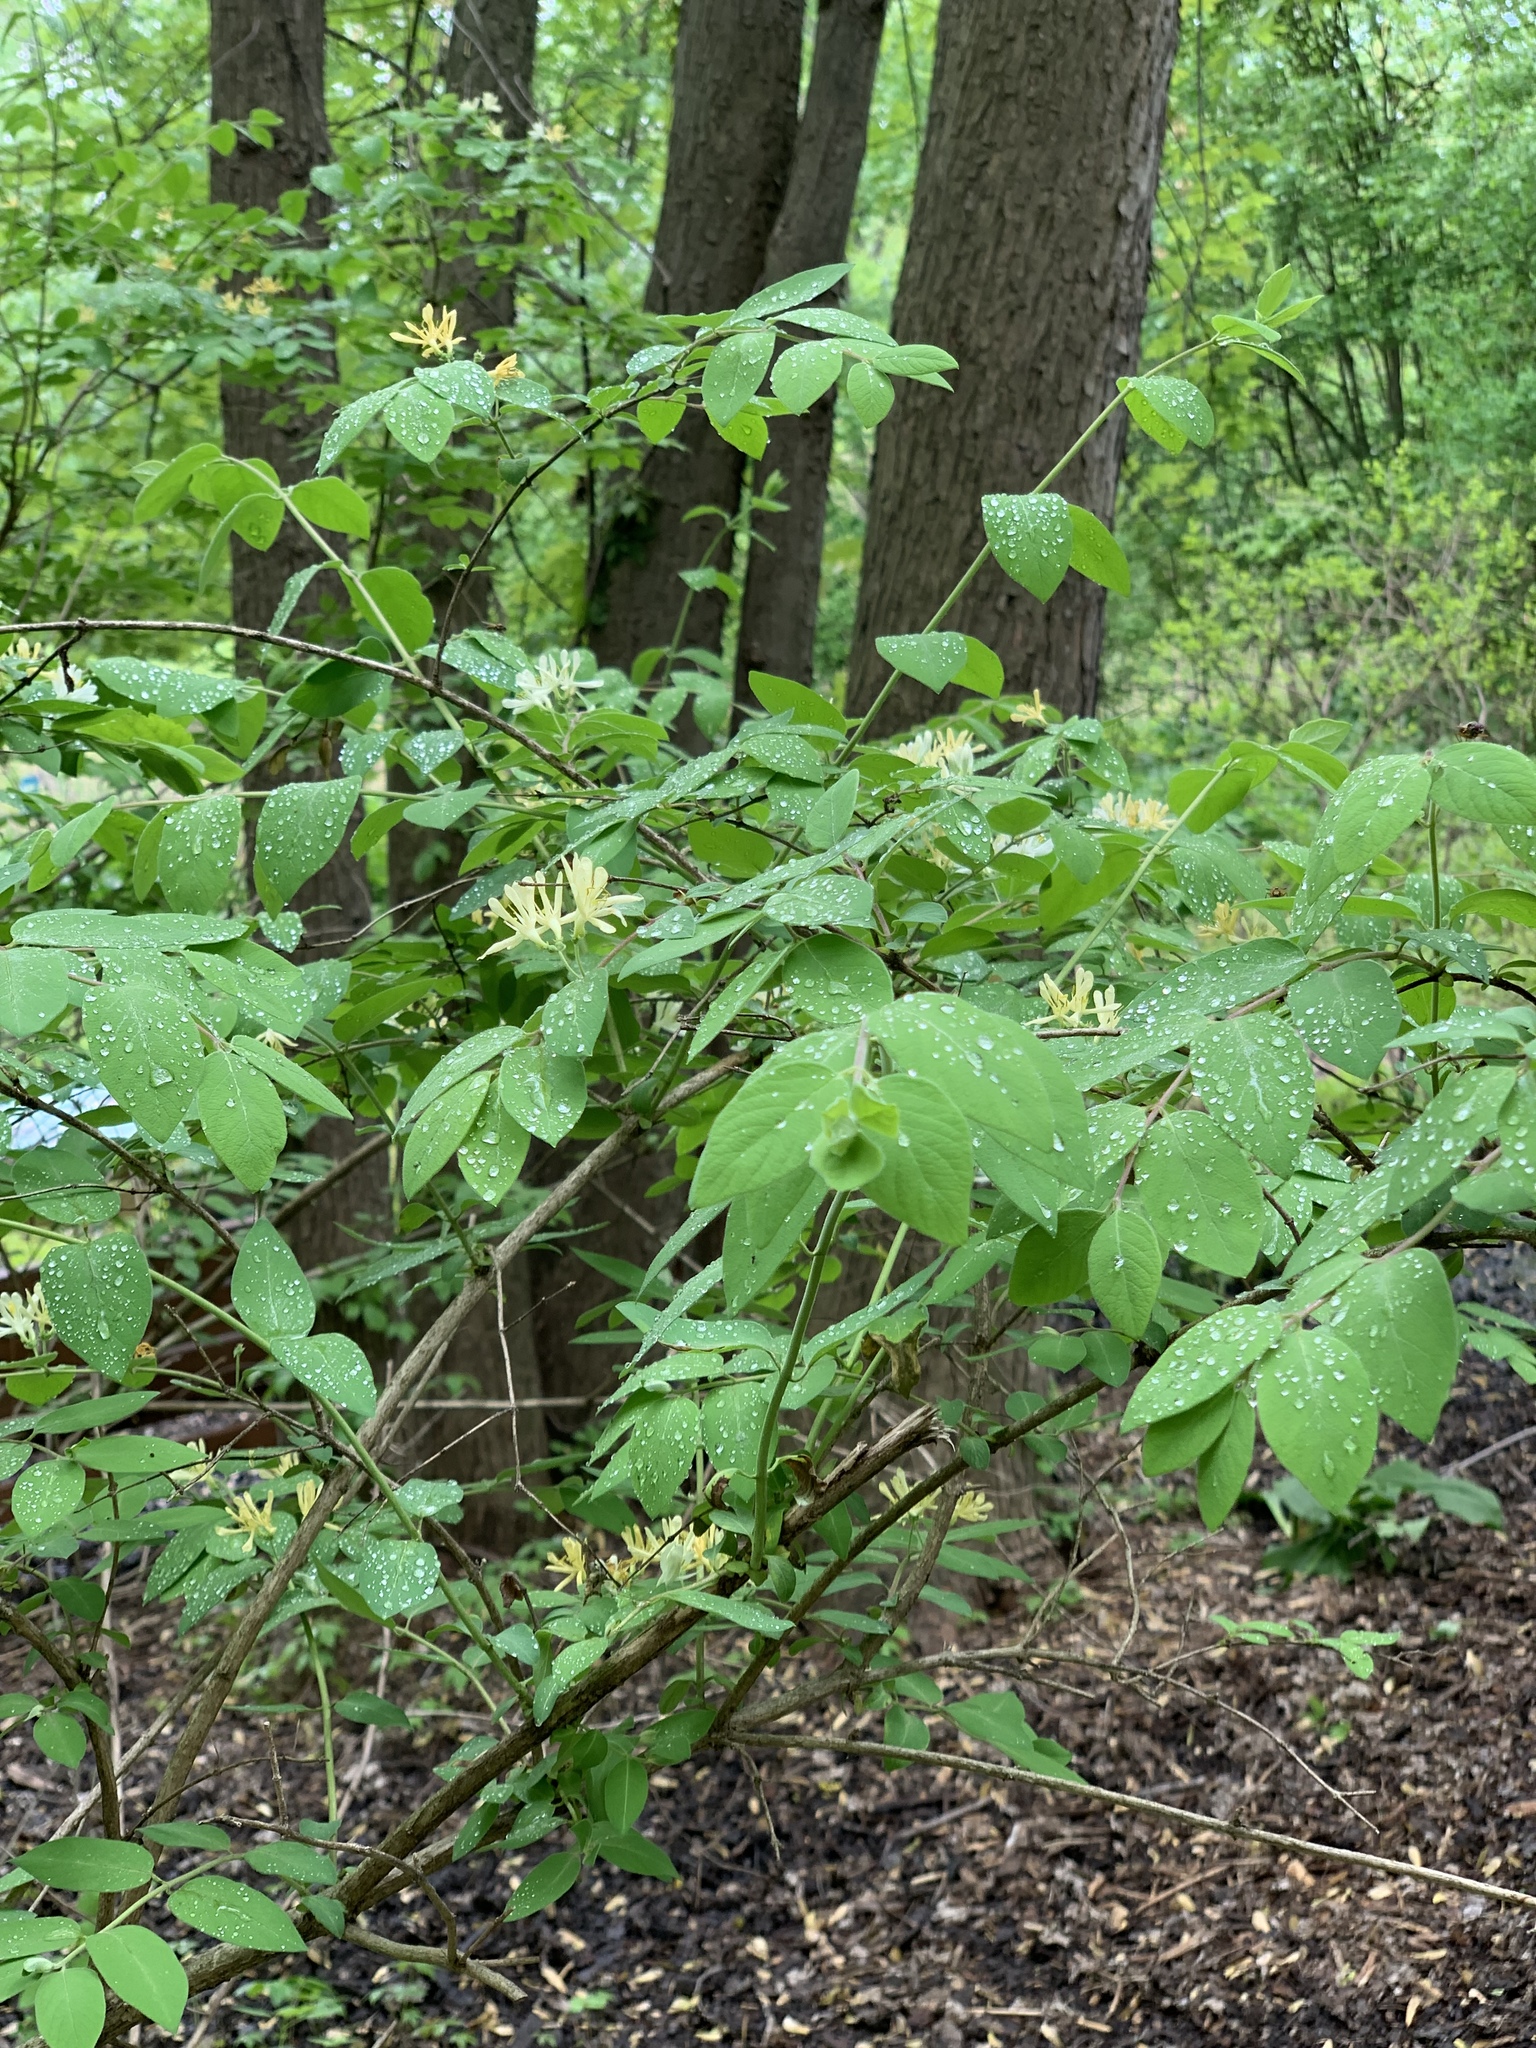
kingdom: Plantae
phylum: Tracheophyta
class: Magnoliopsida
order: Dipsacales
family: Caprifoliaceae
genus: Lonicera
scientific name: Lonicera
